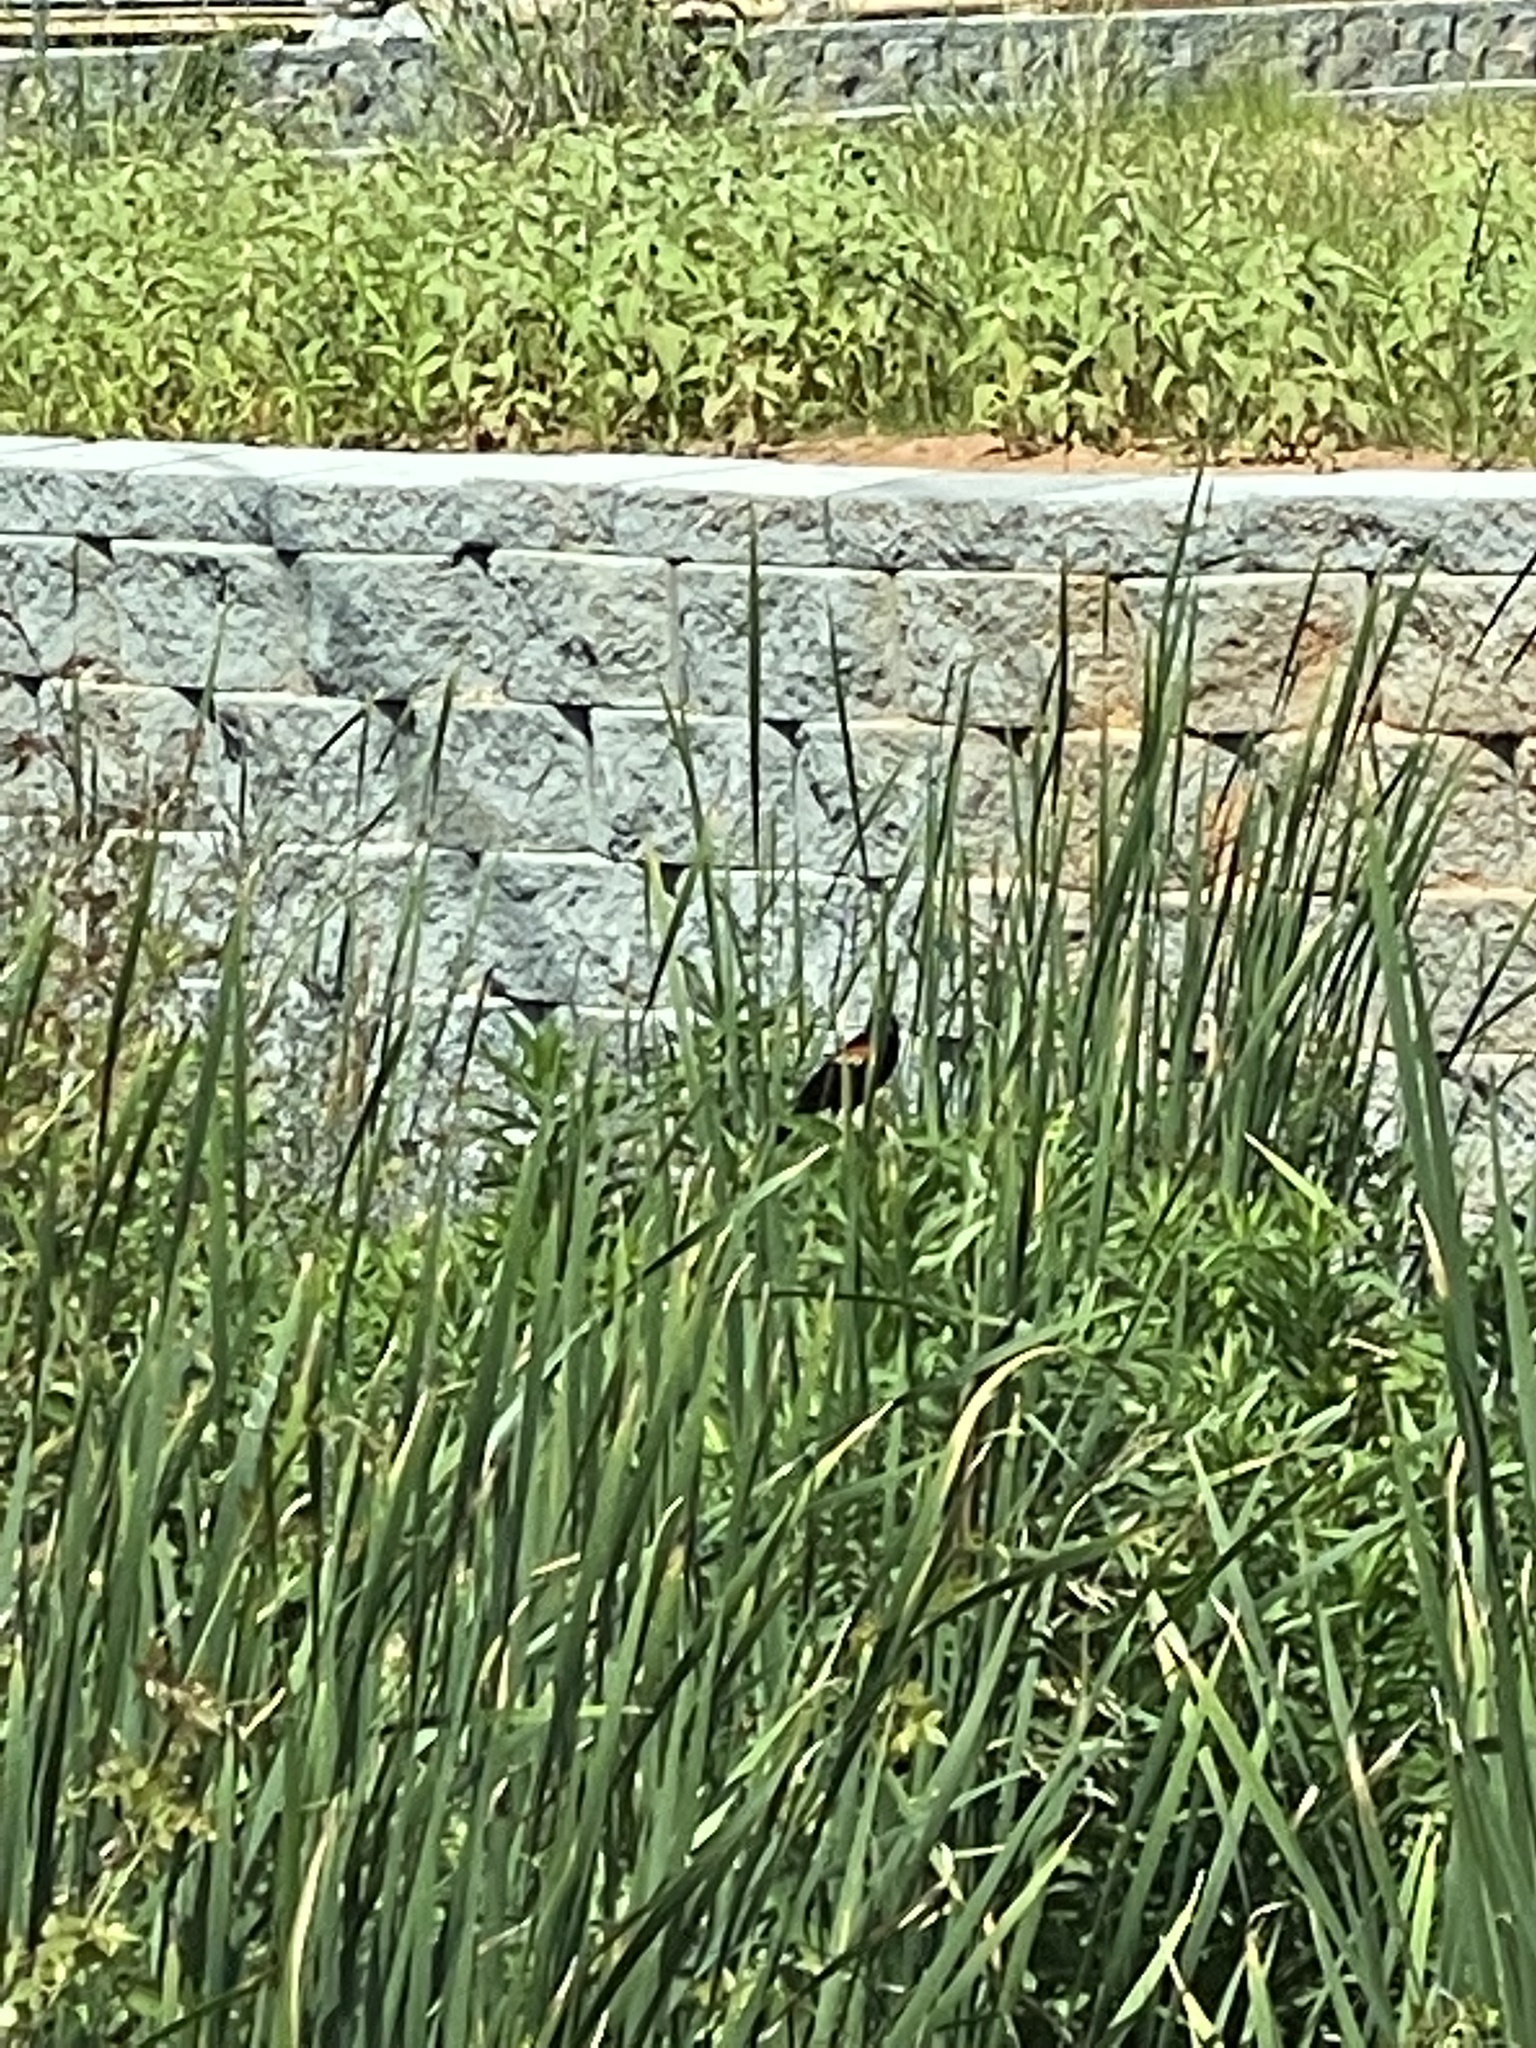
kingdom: Animalia
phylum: Chordata
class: Aves
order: Passeriformes
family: Icteridae
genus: Agelaius
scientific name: Agelaius phoeniceus
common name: Red-winged blackbird
